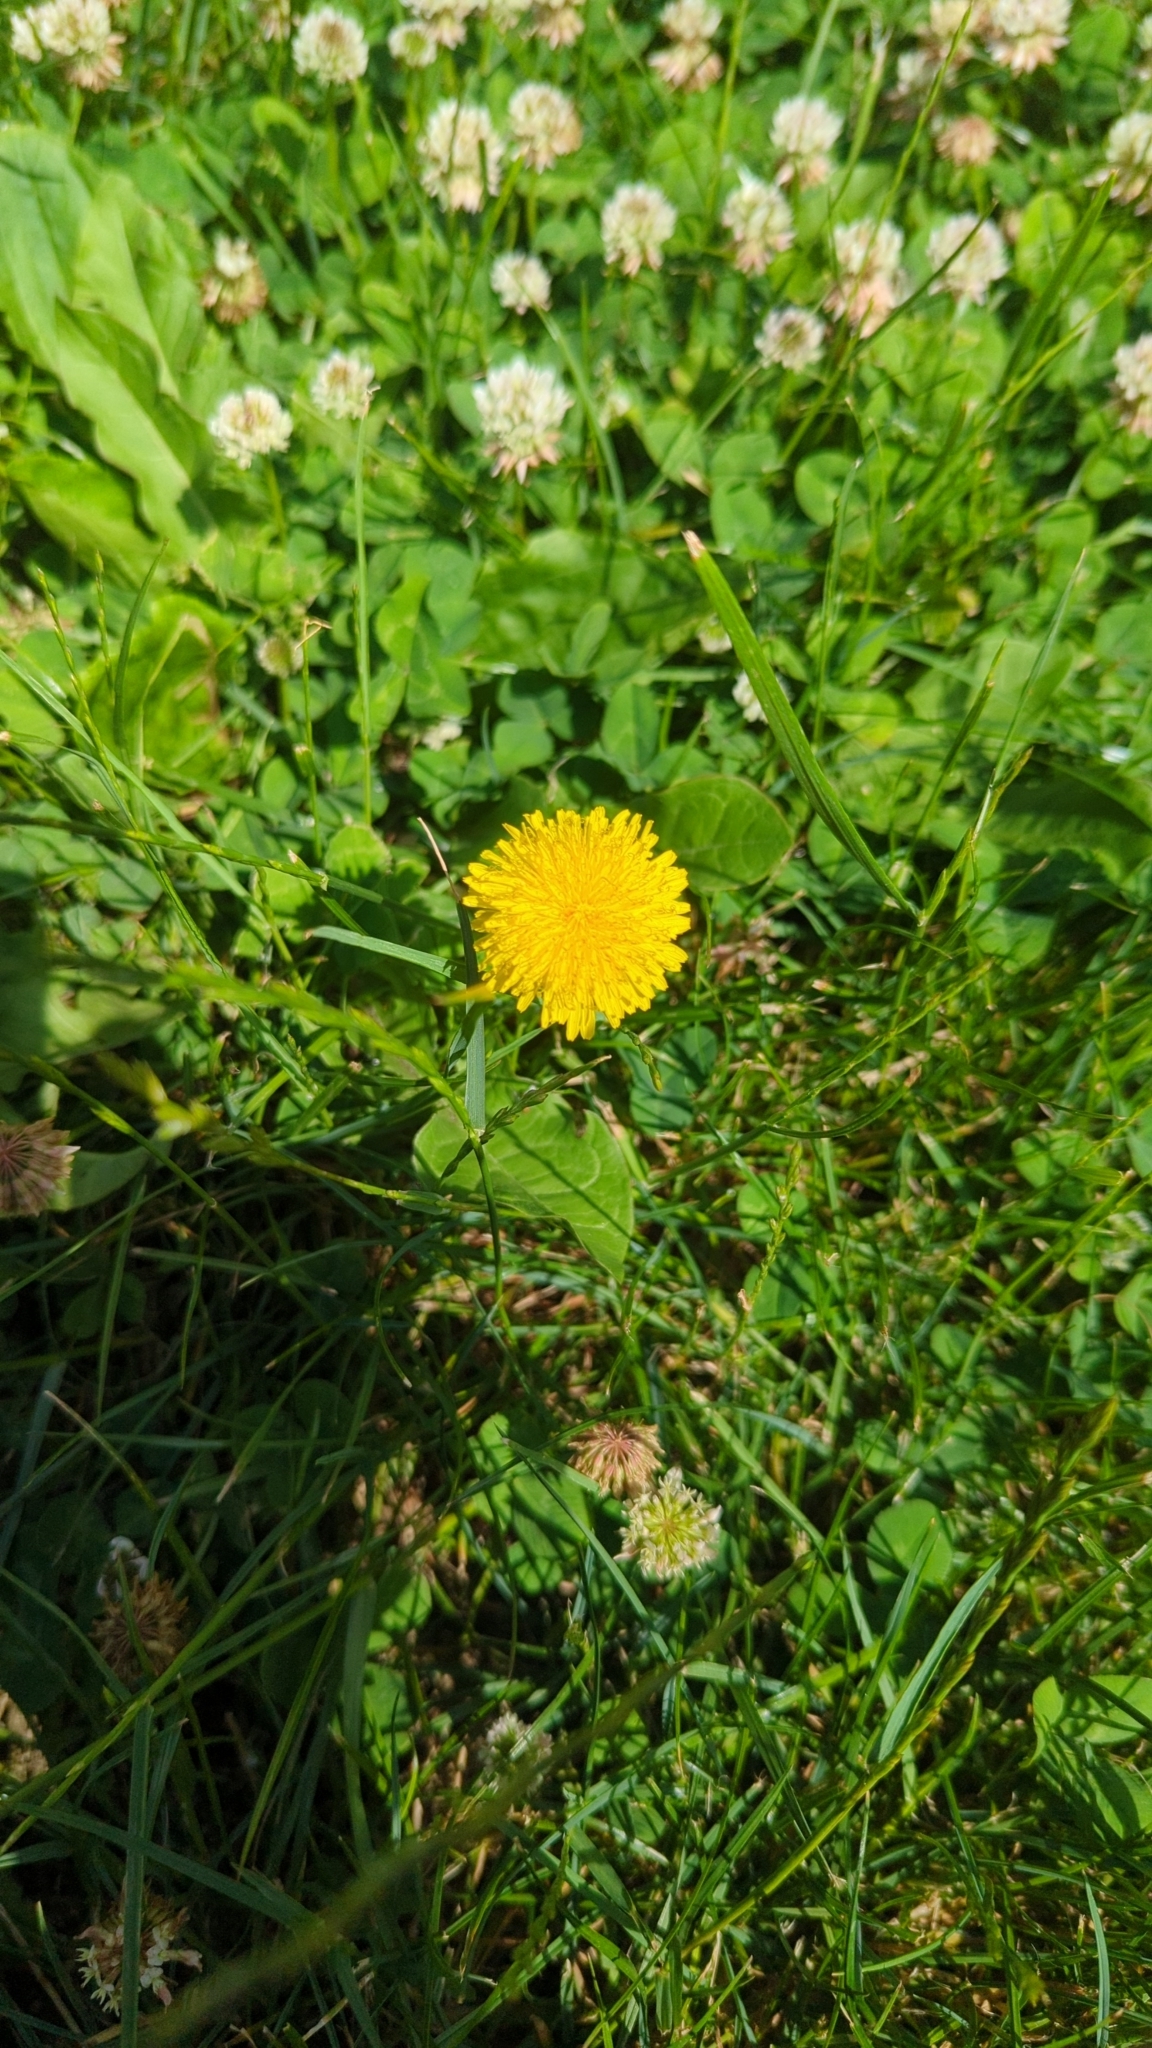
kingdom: Plantae
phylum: Tracheophyta
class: Magnoliopsida
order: Asterales
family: Asteraceae
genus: Taraxacum
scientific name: Taraxacum
